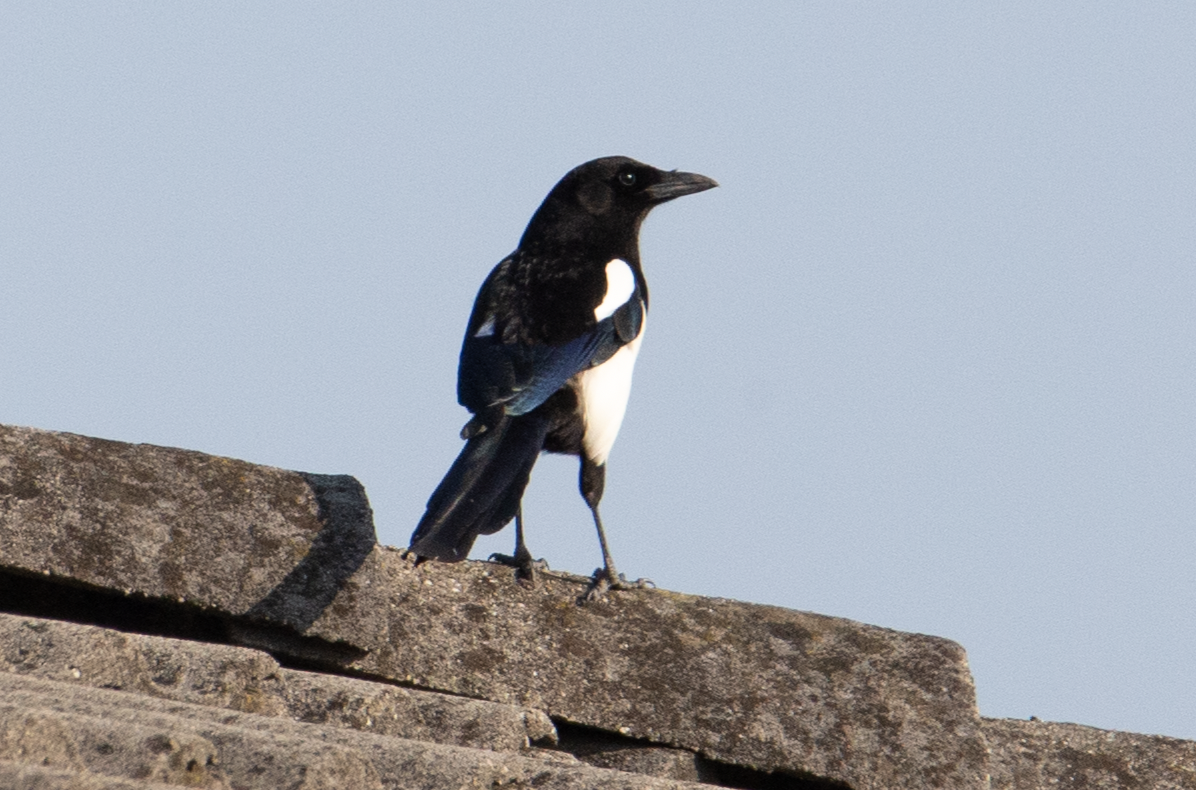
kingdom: Animalia
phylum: Chordata
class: Aves
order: Passeriformes
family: Corvidae
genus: Pica
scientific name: Pica pica
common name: Eurasian magpie
